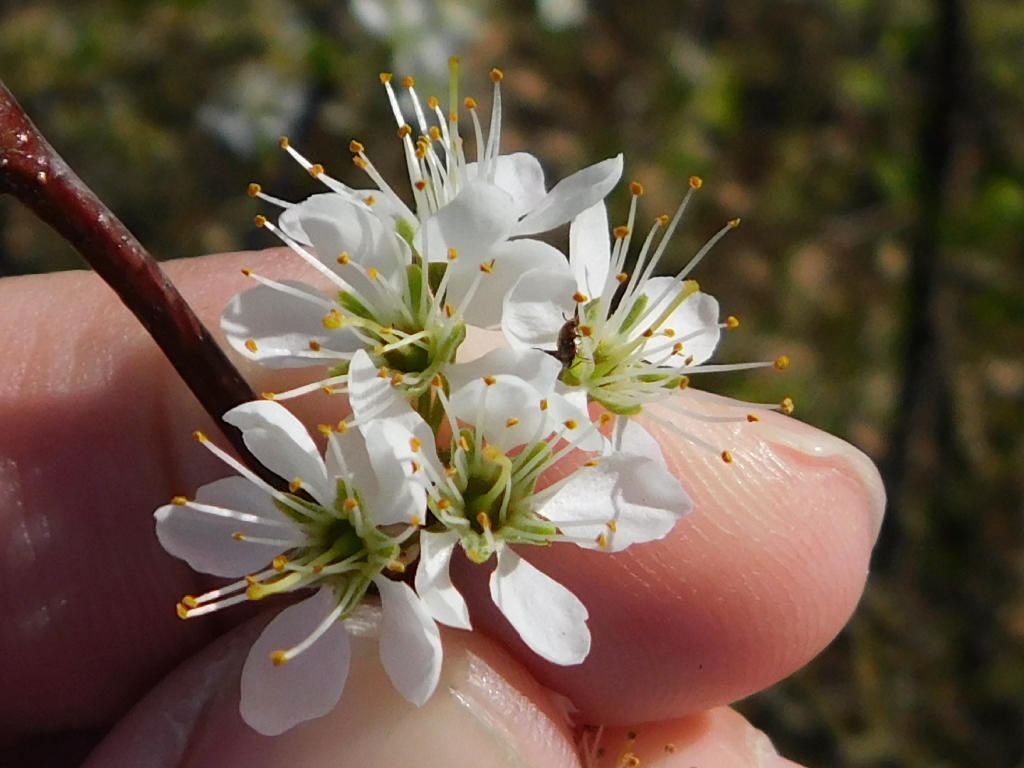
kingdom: Plantae
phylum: Tracheophyta
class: Magnoliopsida
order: Rosales
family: Rosaceae
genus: Prunus
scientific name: Prunus angustifolia
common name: Cherokee plum
